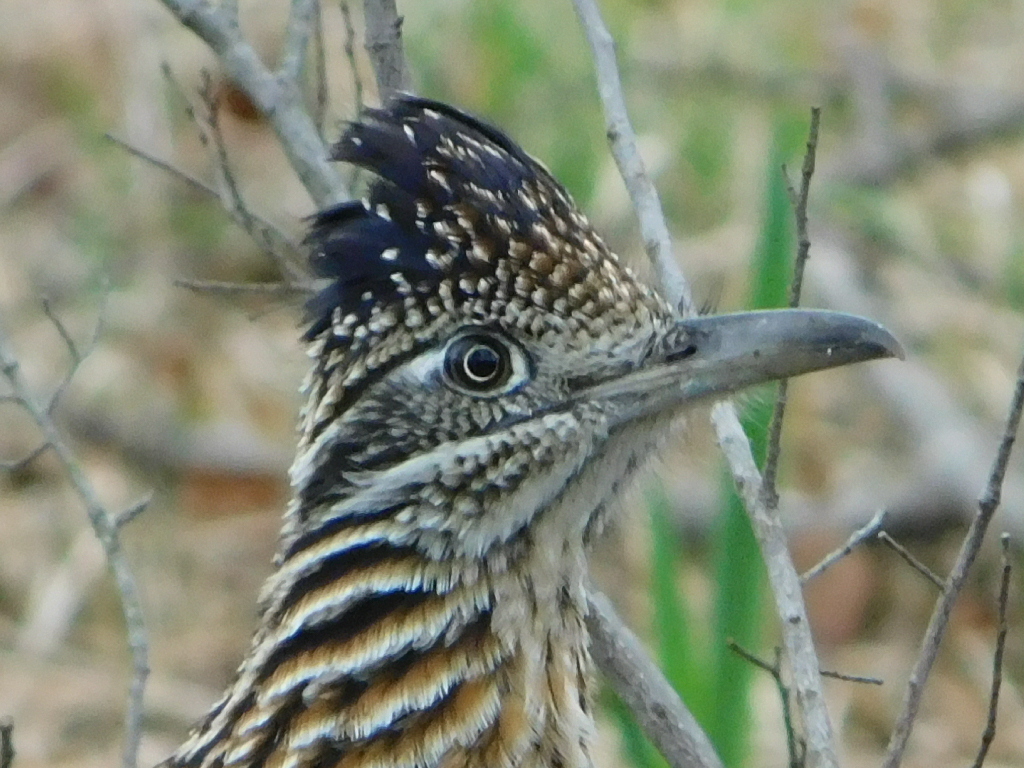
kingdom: Animalia
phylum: Chordata
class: Aves
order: Cuculiformes
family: Cuculidae
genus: Geococcyx
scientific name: Geococcyx californianus
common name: Greater roadrunner
